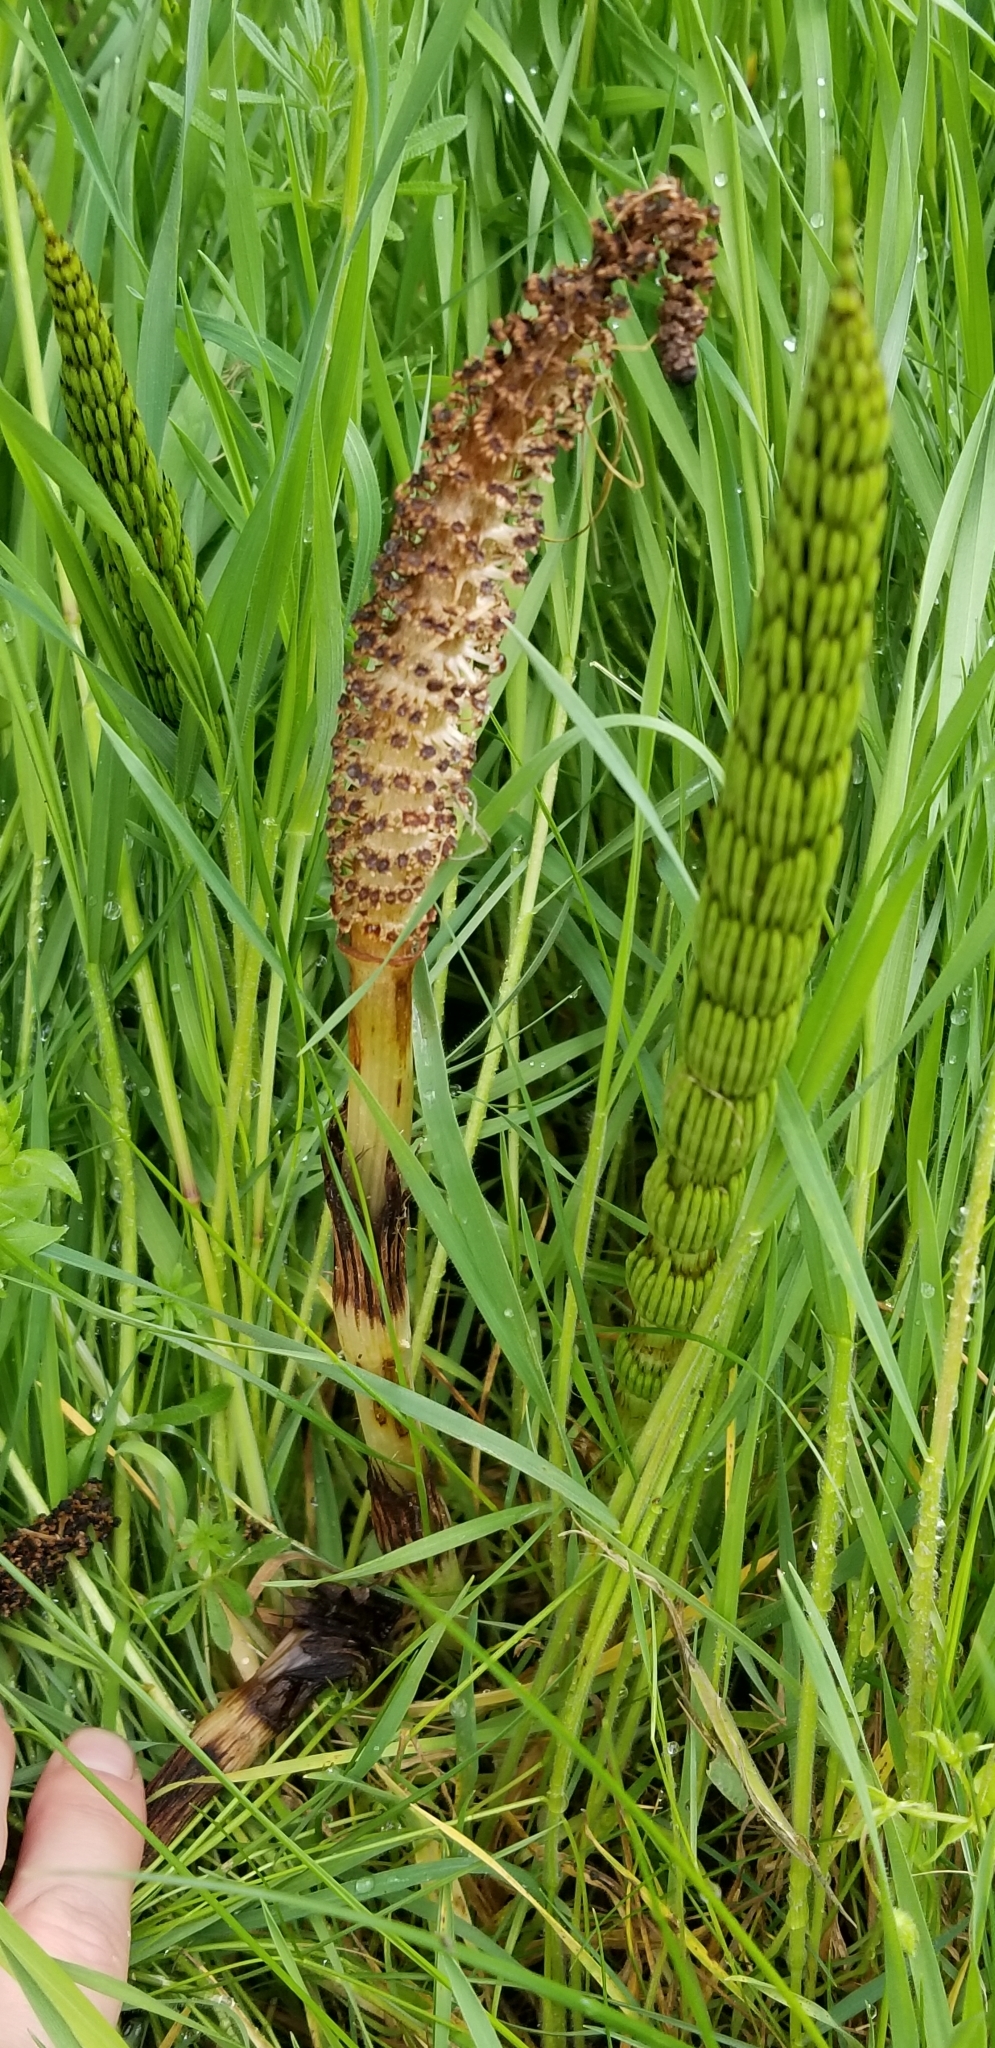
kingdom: Plantae
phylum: Tracheophyta
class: Polypodiopsida
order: Equisetales
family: Equisetaceae
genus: Equisetum
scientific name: Equisetum braunii
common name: Braun's horsetail
